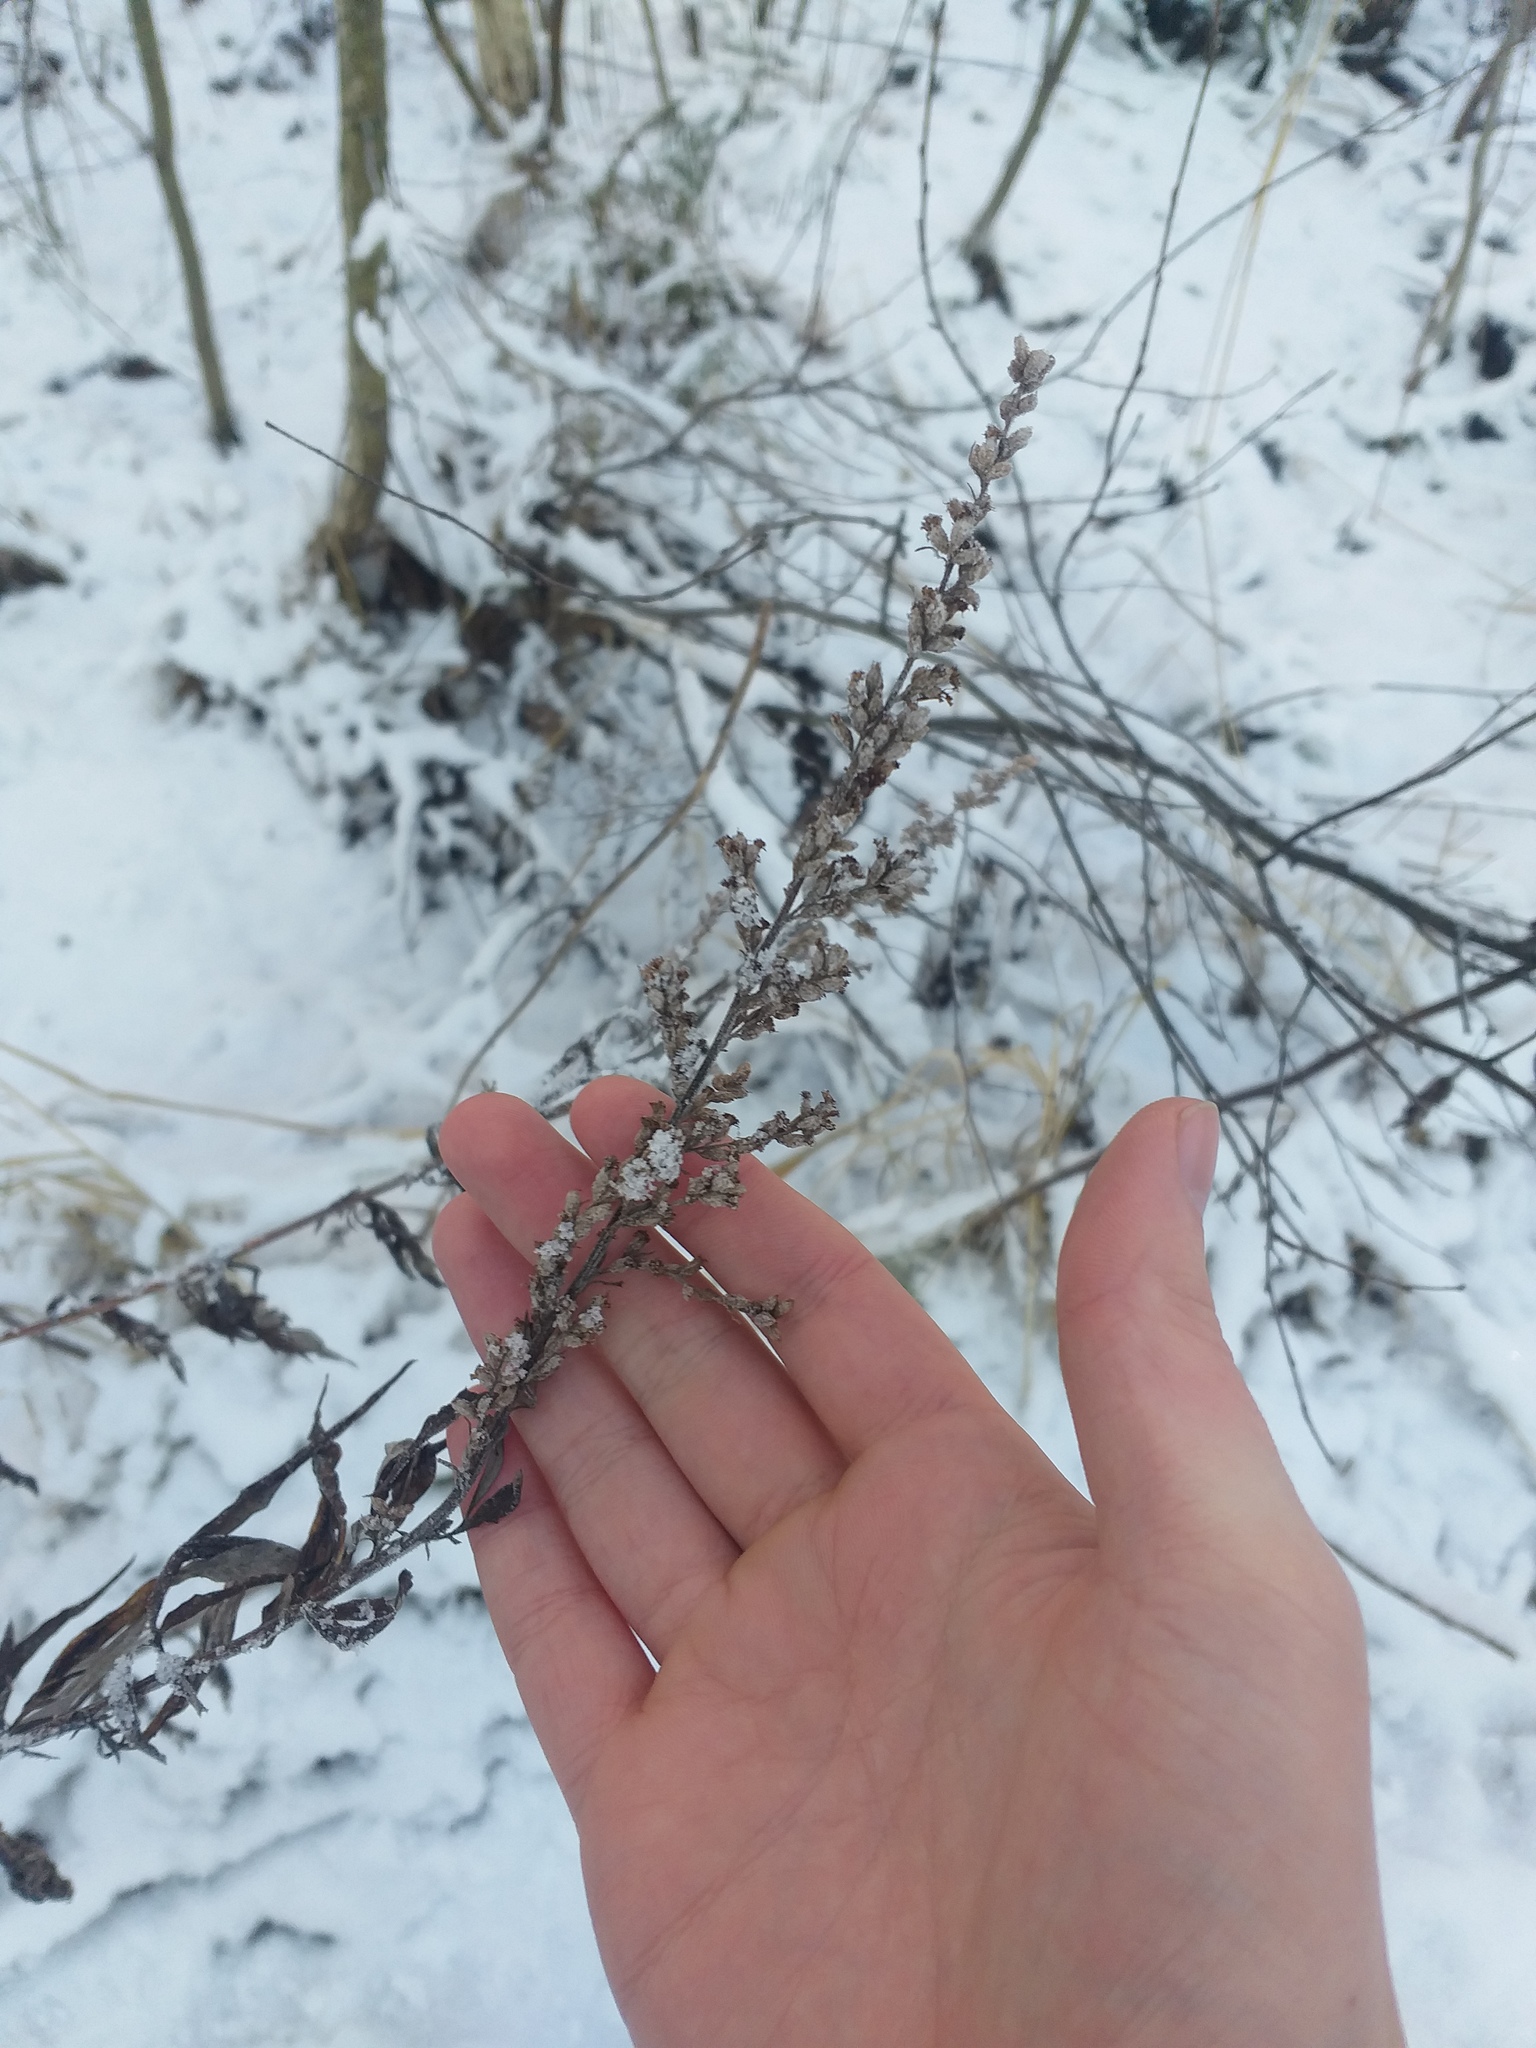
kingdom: Plantae
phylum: Tracheophyta
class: Magnoliopsida
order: Asterales
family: Asteraceae
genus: Artemisia
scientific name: Artemisia vulgaris
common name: Mugwort
